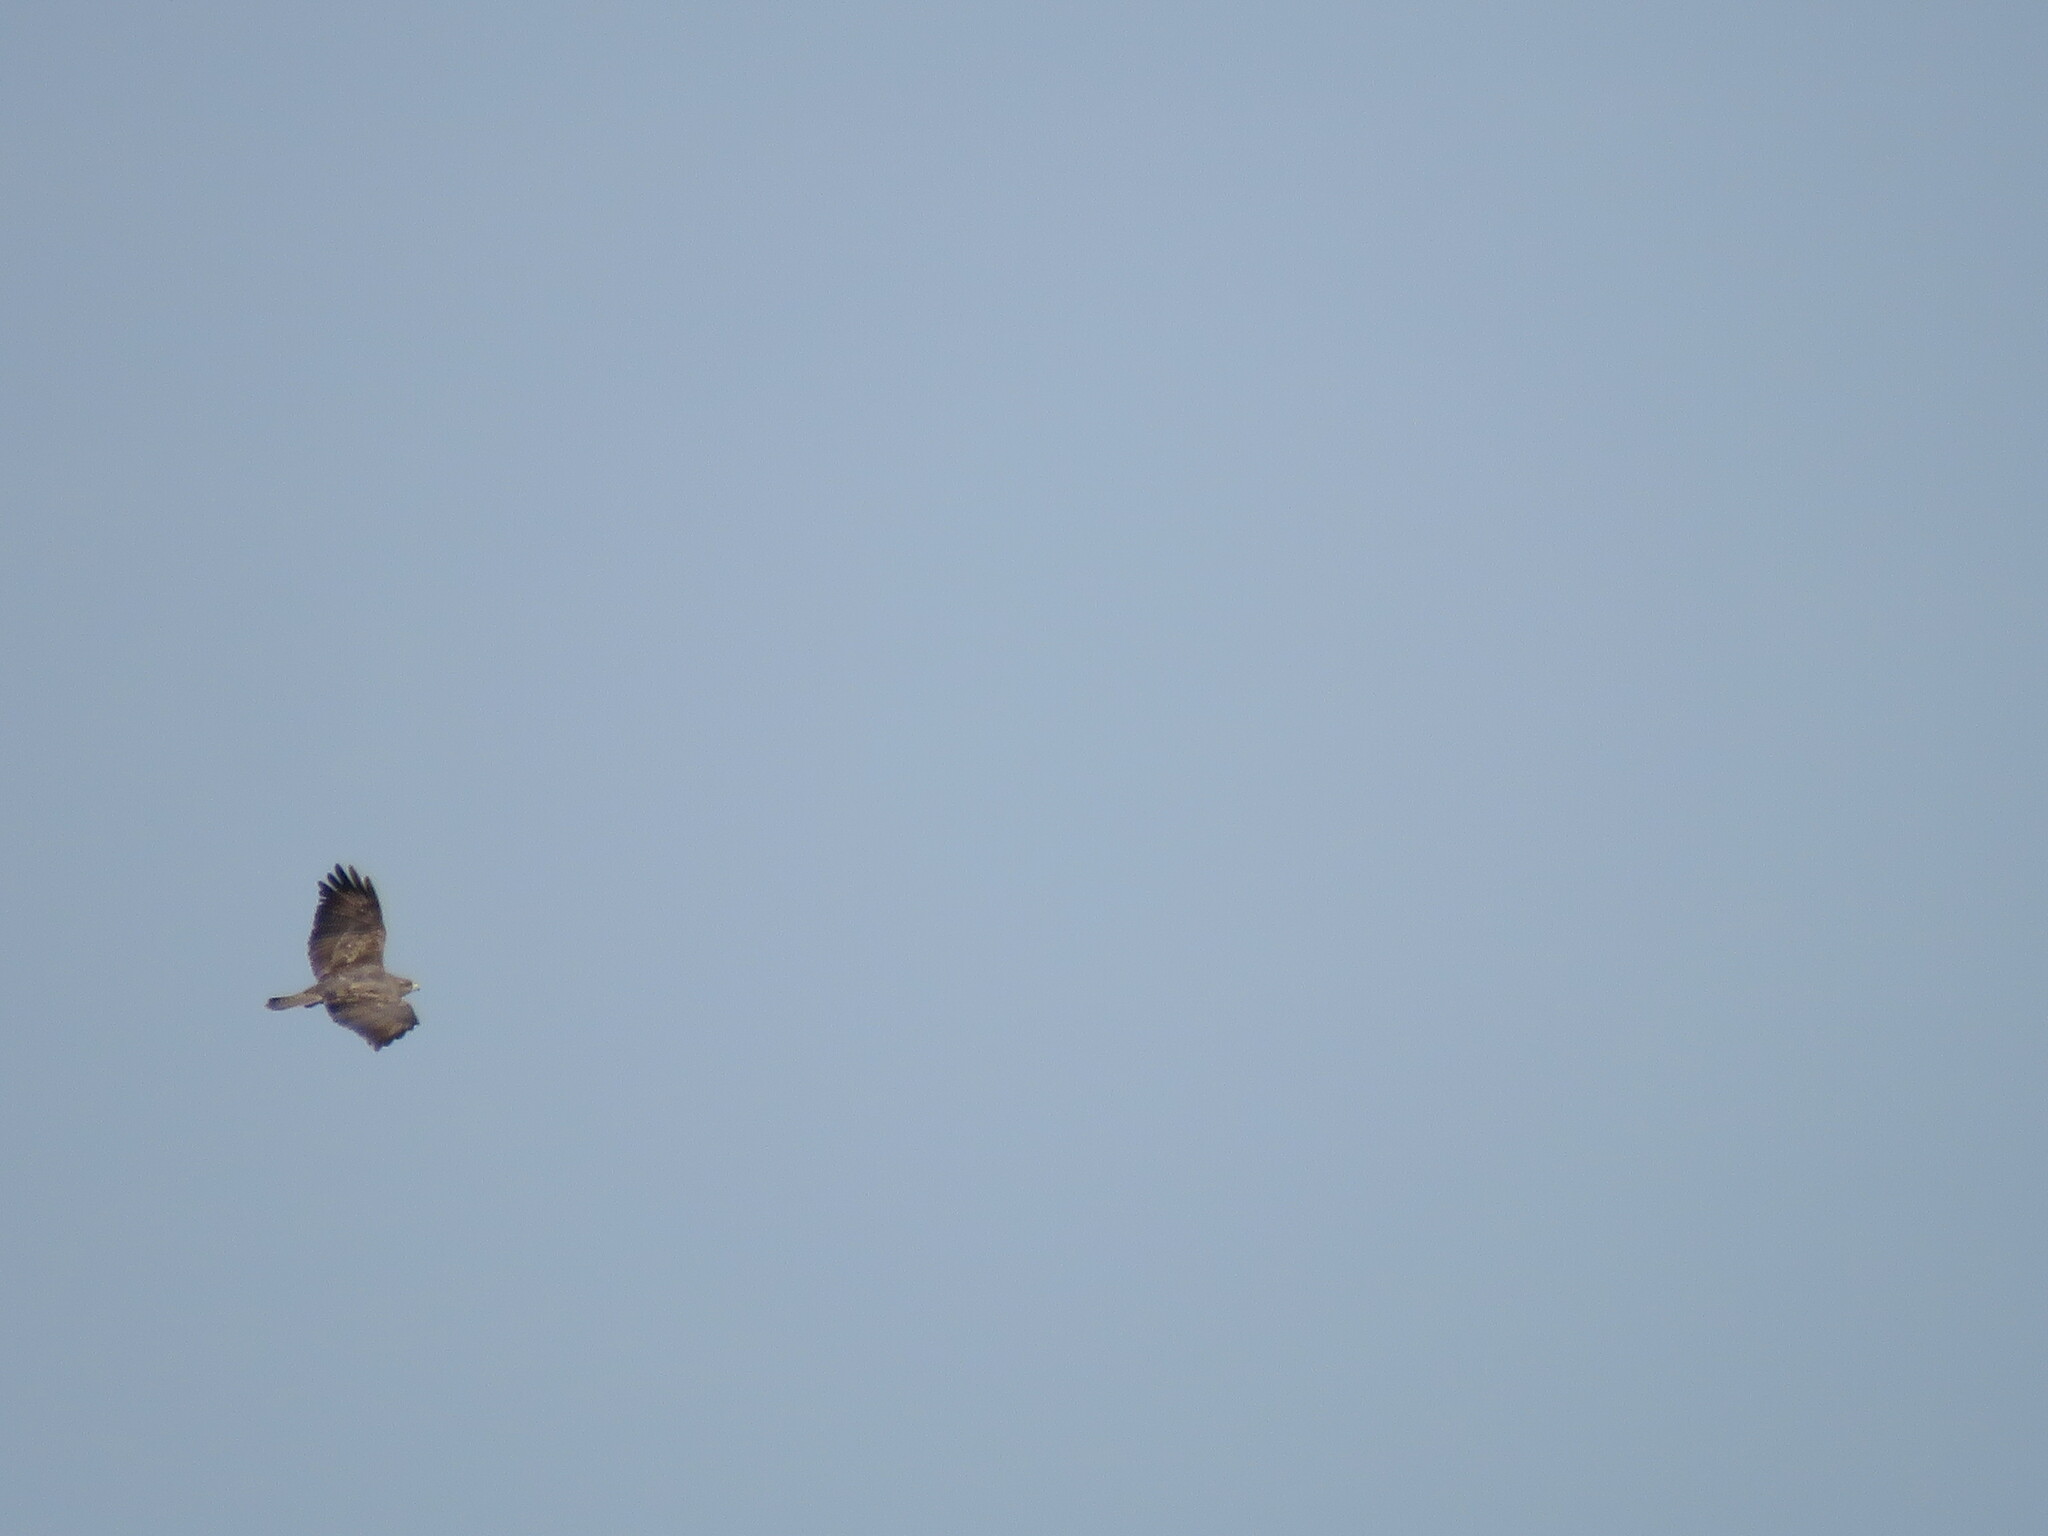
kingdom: Animalia
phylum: Chordata
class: Aves
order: Accipitriformes
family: Accipitridae
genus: Buteo
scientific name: Buteo buteo
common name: Common buzzard
